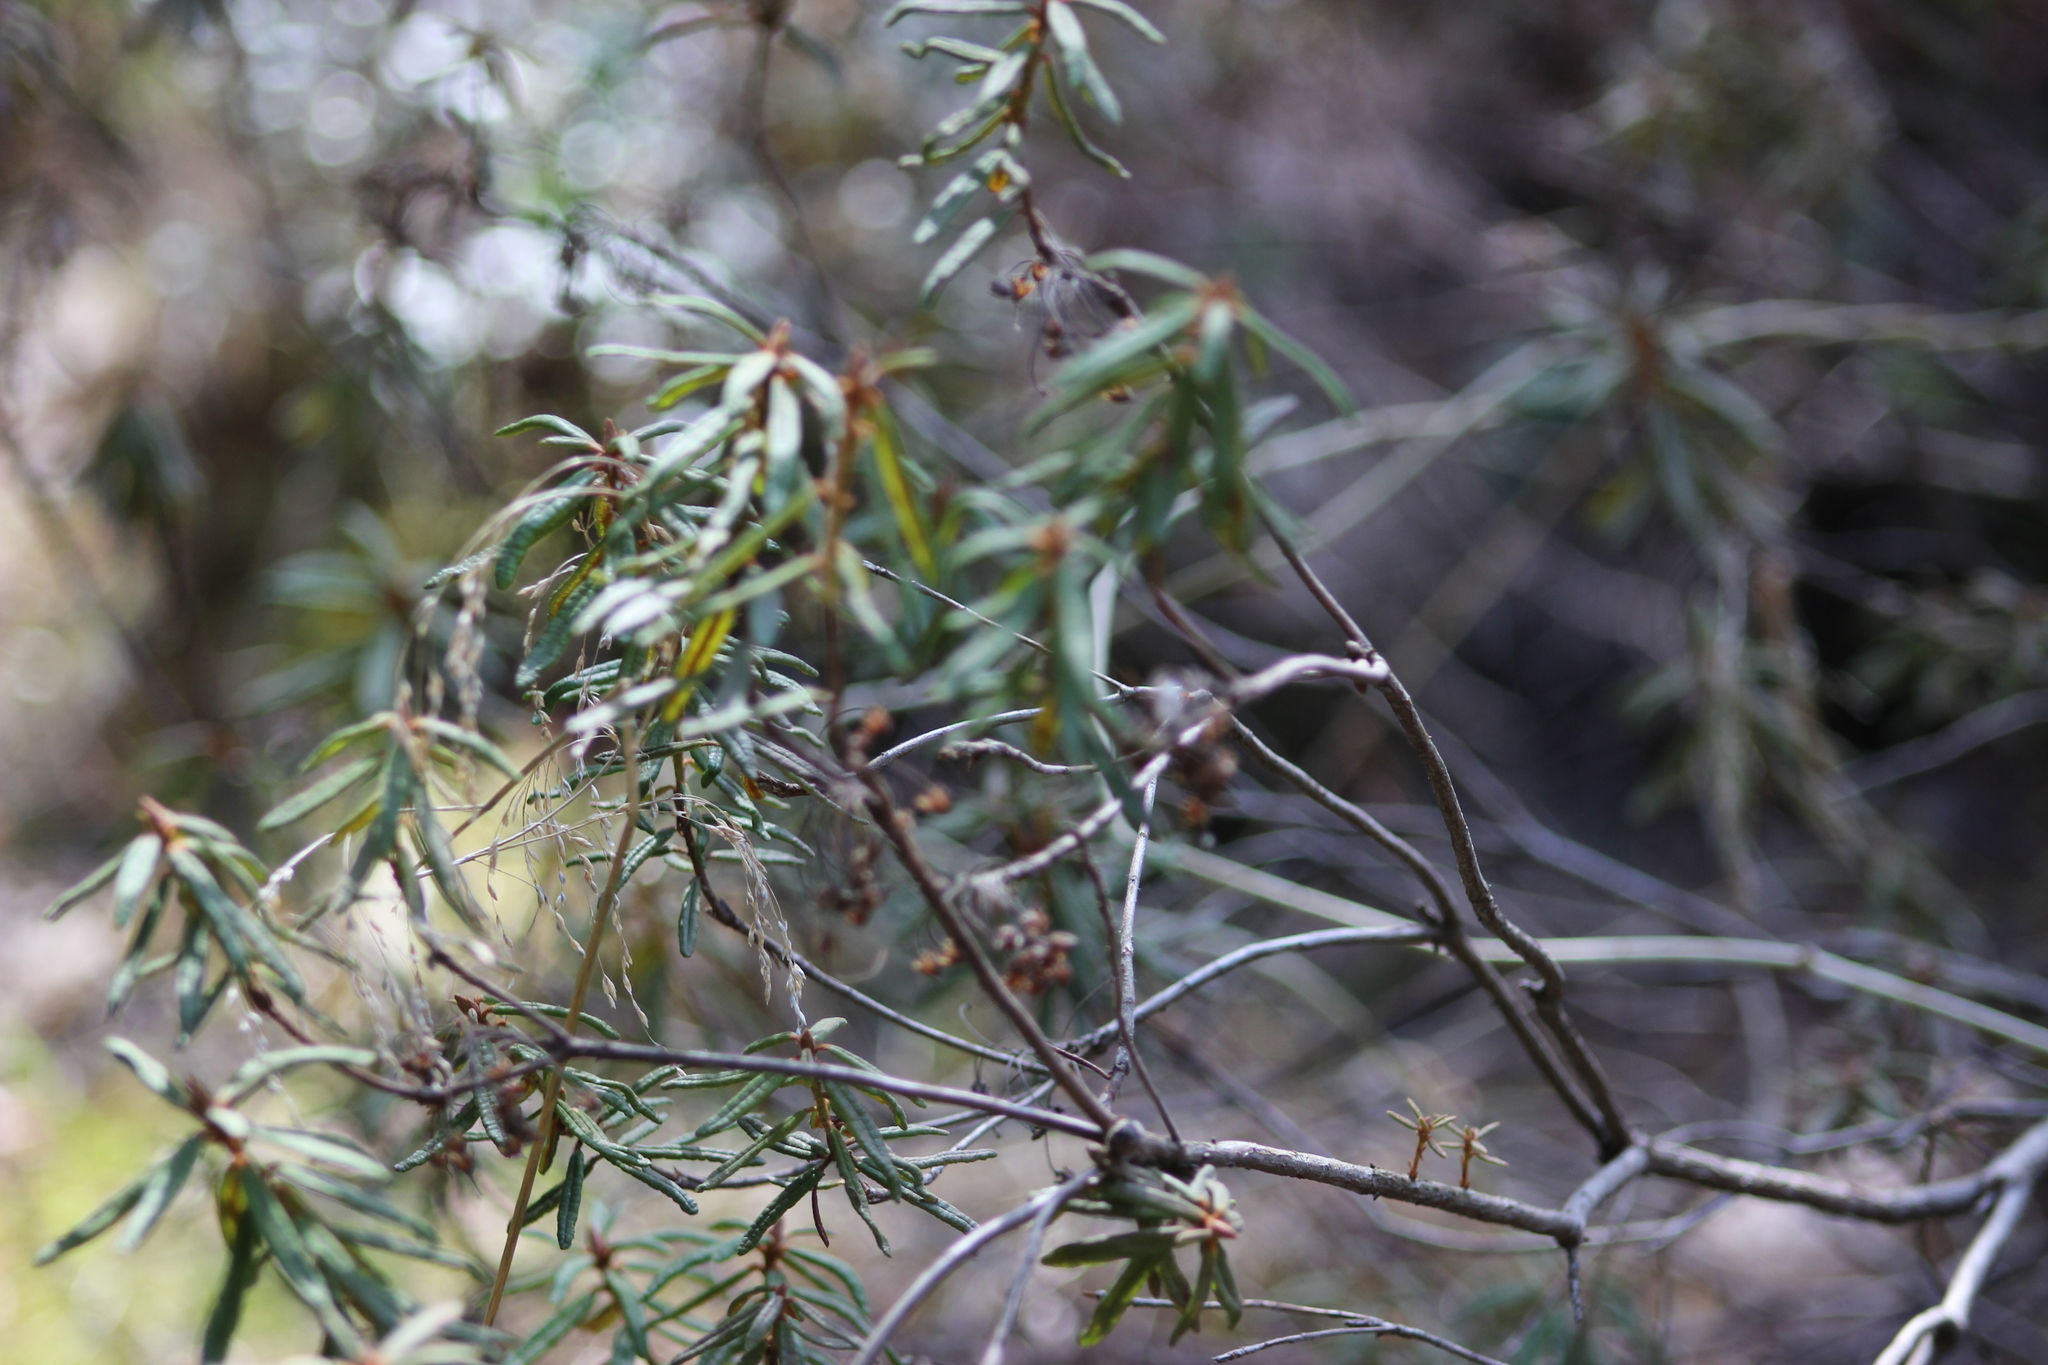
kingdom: Plantae
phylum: Tracheophyta
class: Magnoliopsida
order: Ericales
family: Ericaceae
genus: Rhododendron
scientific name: Rhododendron tomentosum
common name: Marsh labrador tea
